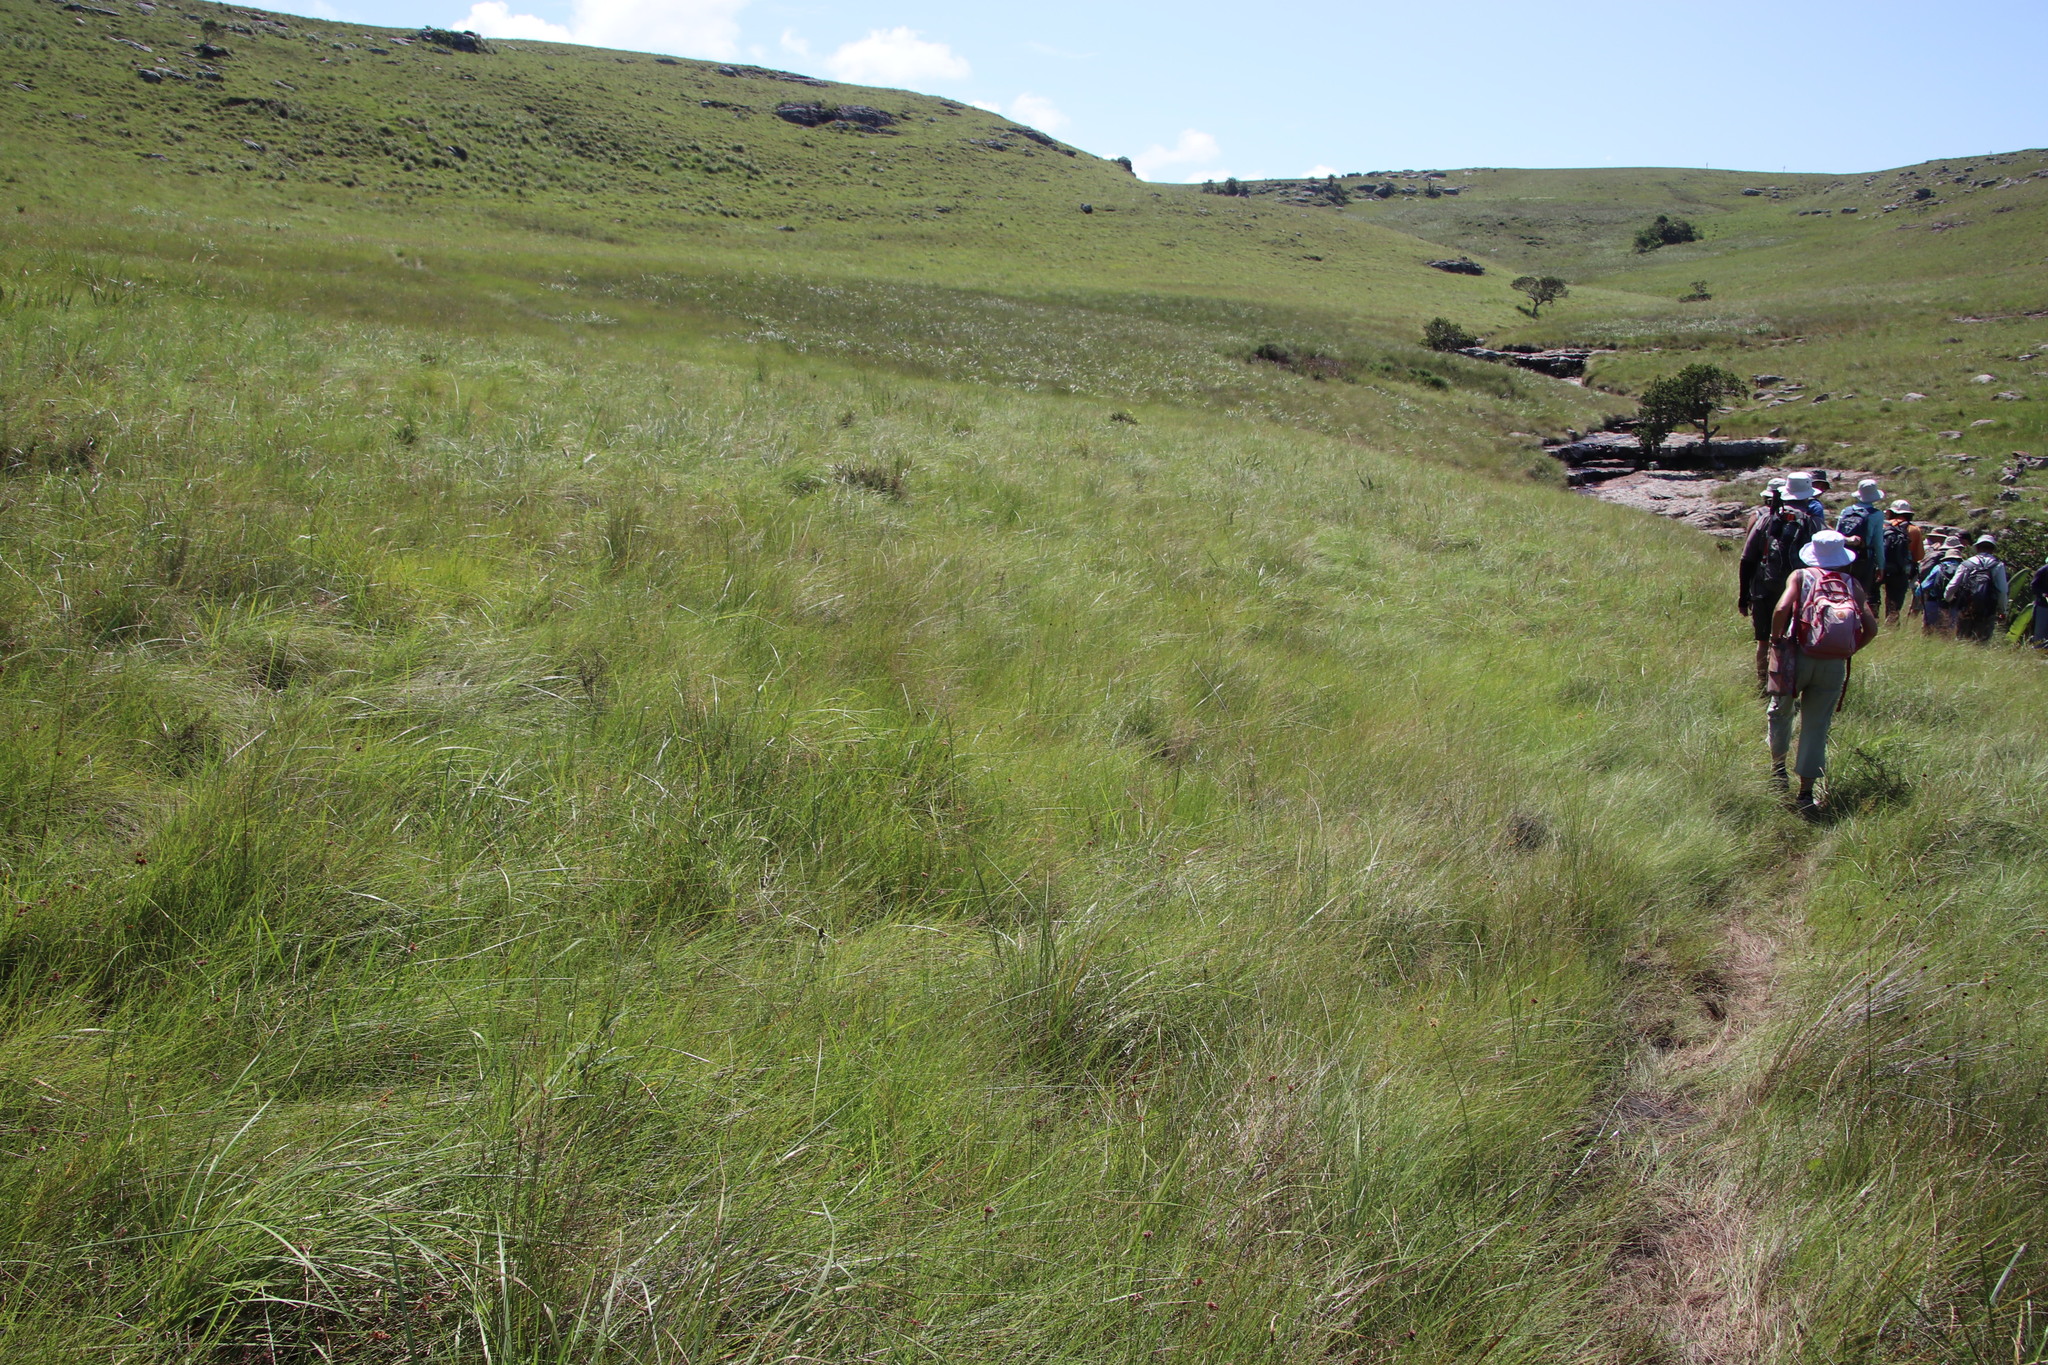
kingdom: Plantae
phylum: Tracheophyta
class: Liliopsida
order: Poales
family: Cyperaceae
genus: Rhynchospora
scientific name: Rhynchospora barrosiana
